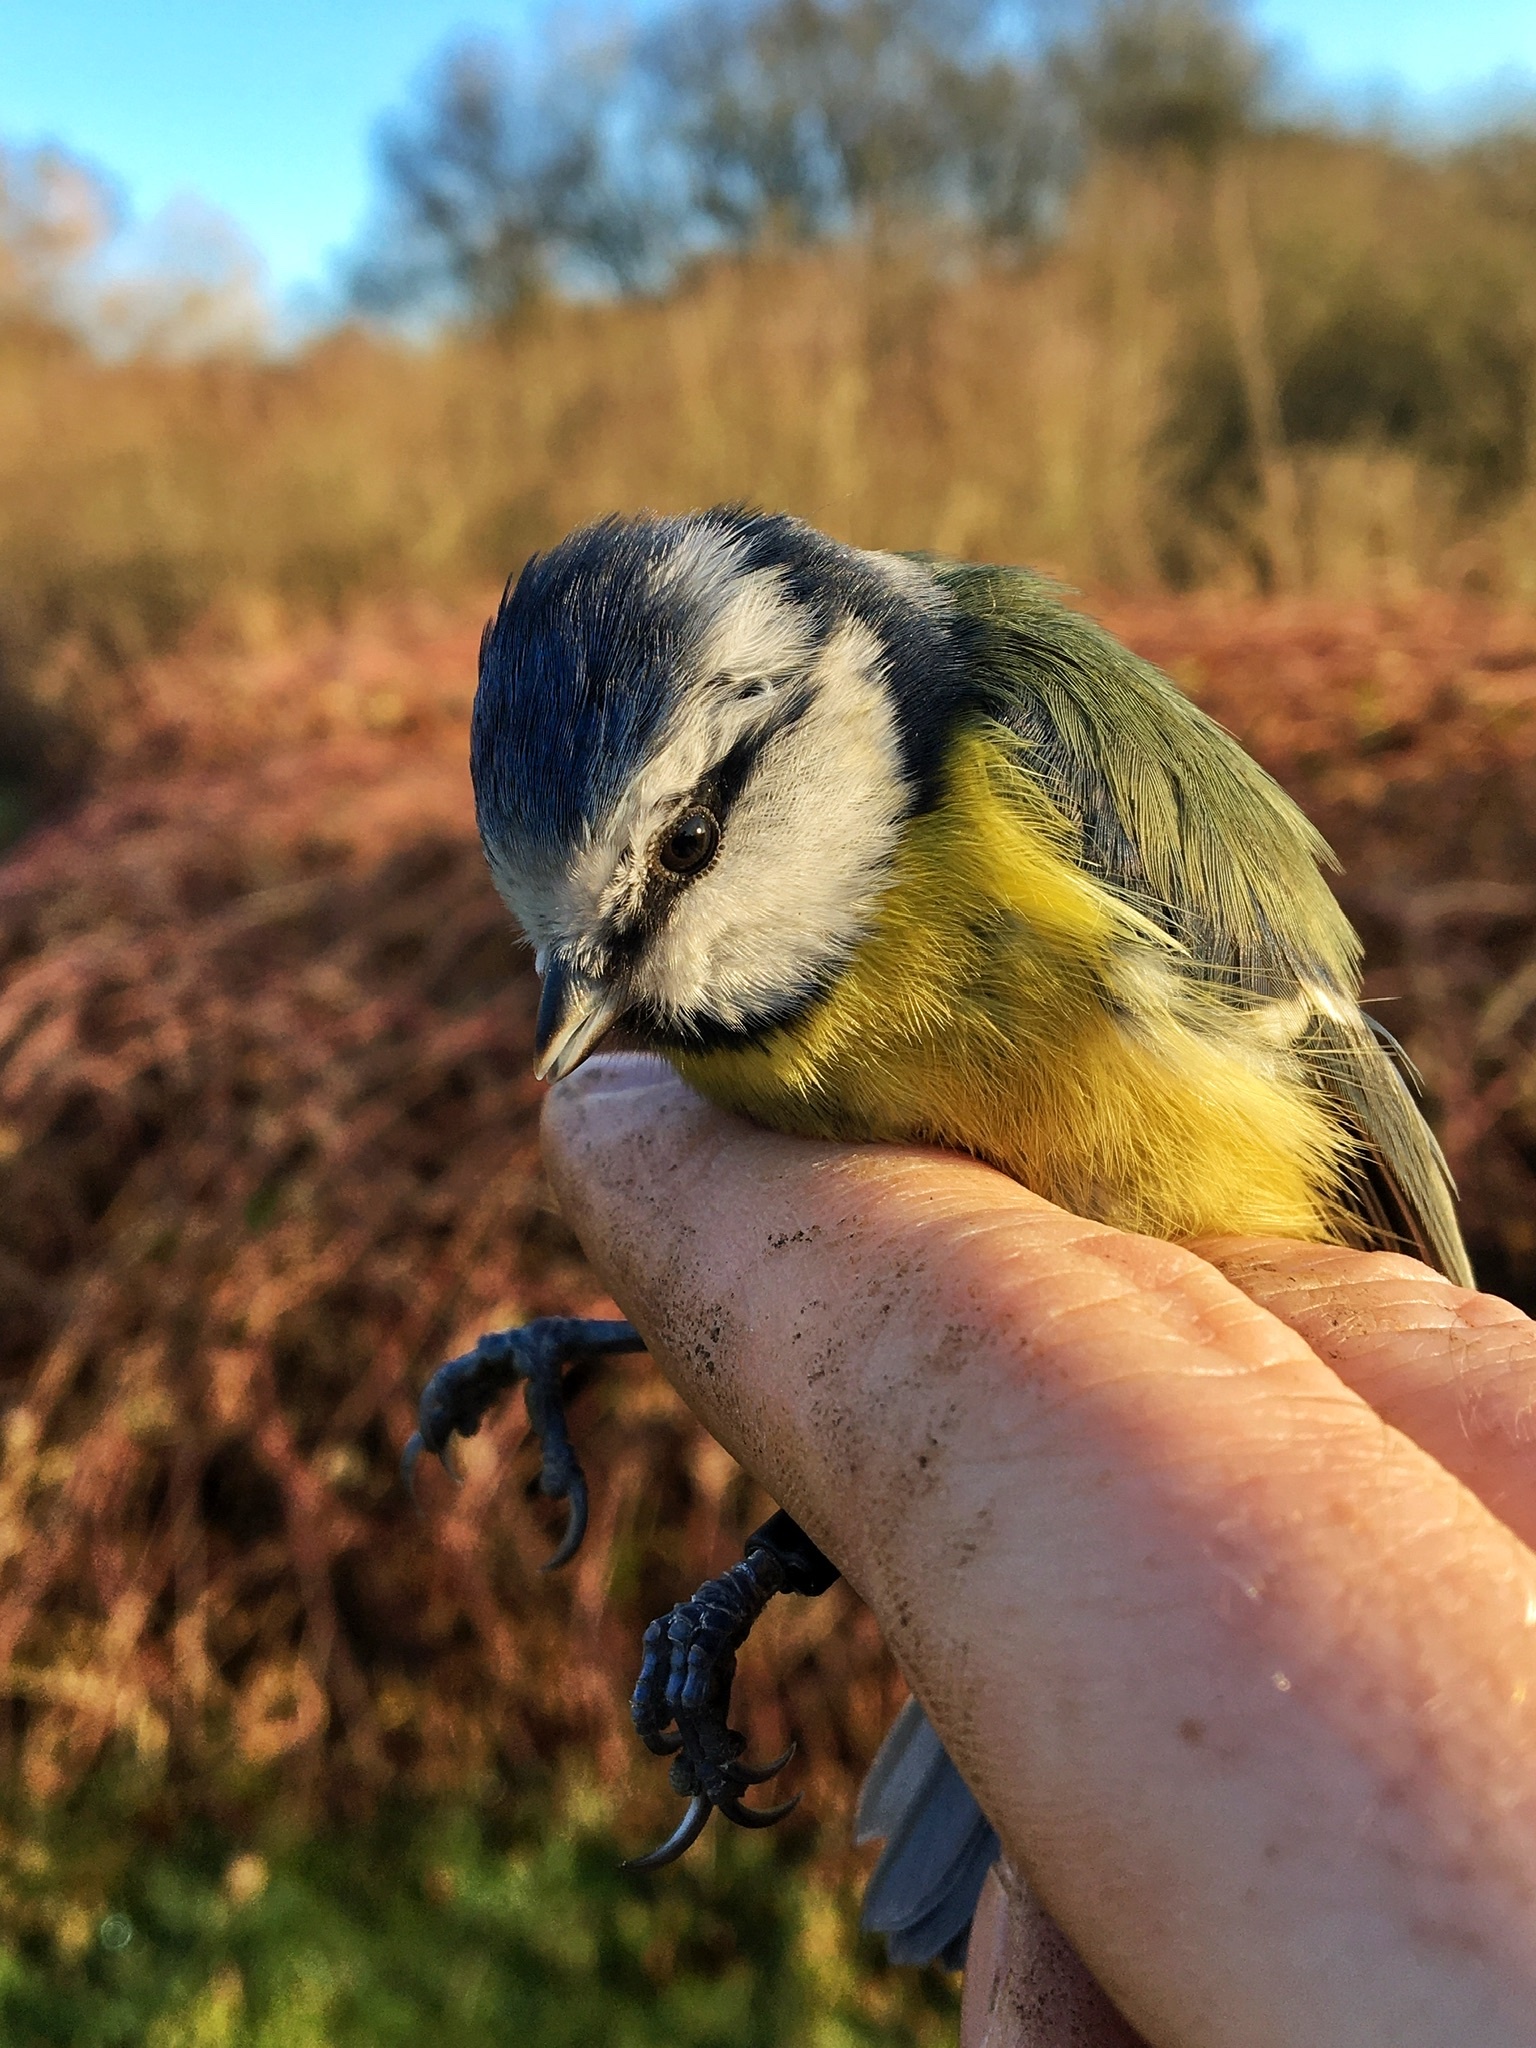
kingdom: Animalia
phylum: Chordata
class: Aves
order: Passeriformes
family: Paridae
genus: Cyanistes
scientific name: Cyanistes caeruleus
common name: Eurasian blue tit
